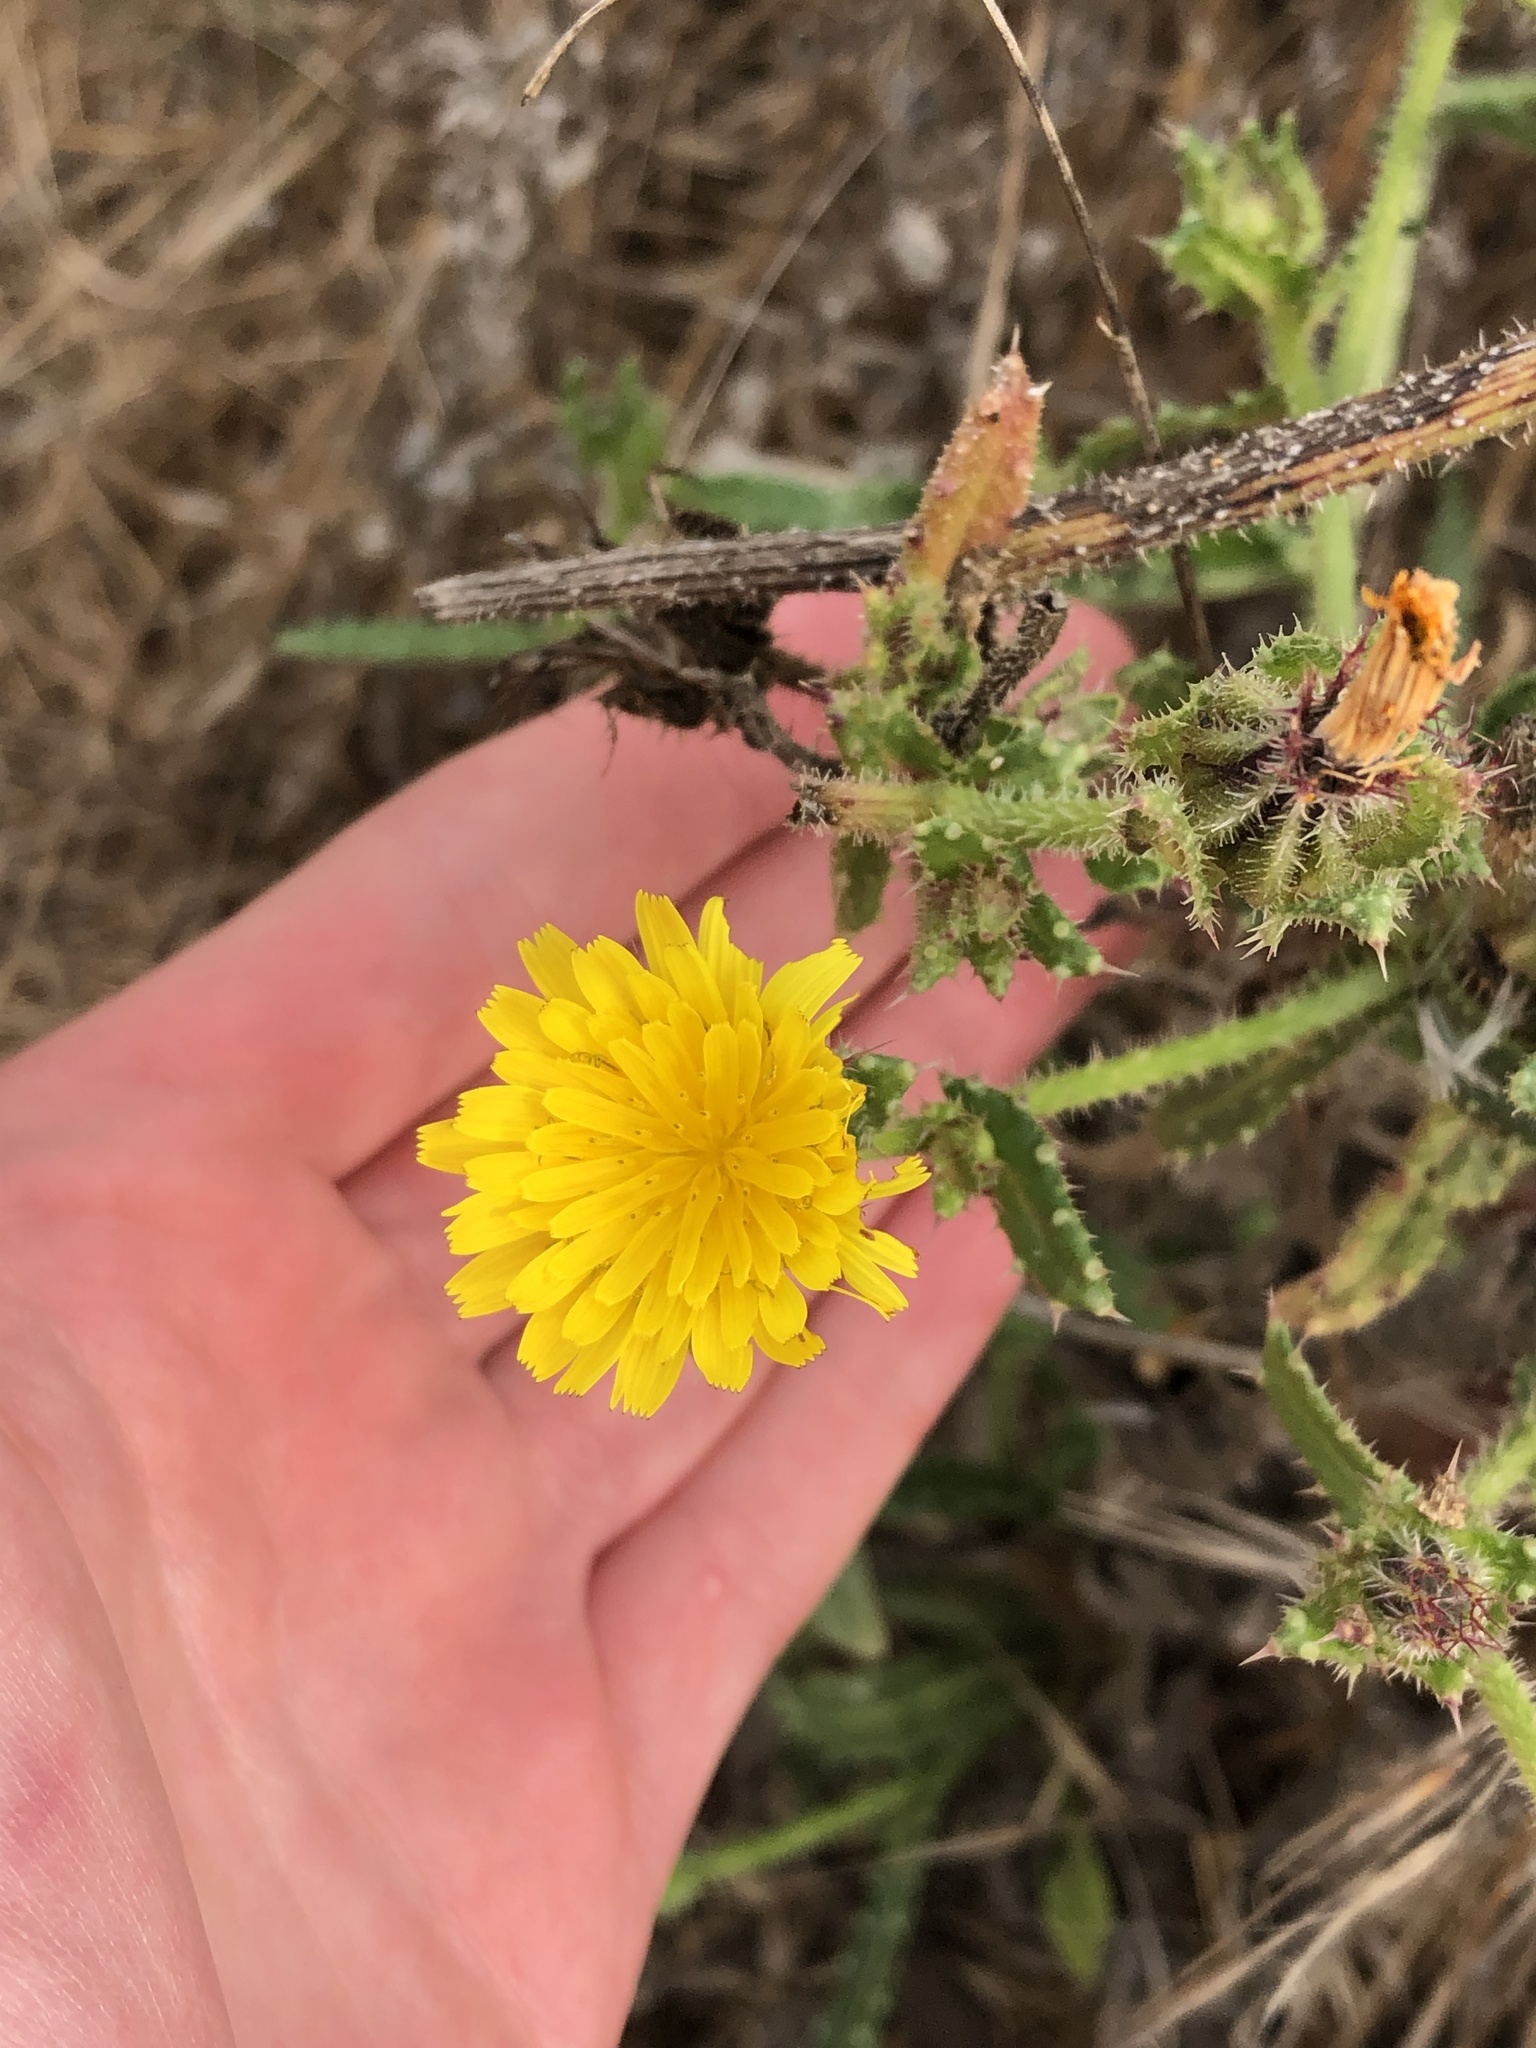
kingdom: Plantae
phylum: Tracheophyta
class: Magnoliopsida
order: Asterales
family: Asteraceae
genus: Helminthotheca
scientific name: Helminthotheca echioides
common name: Ox-tongue
